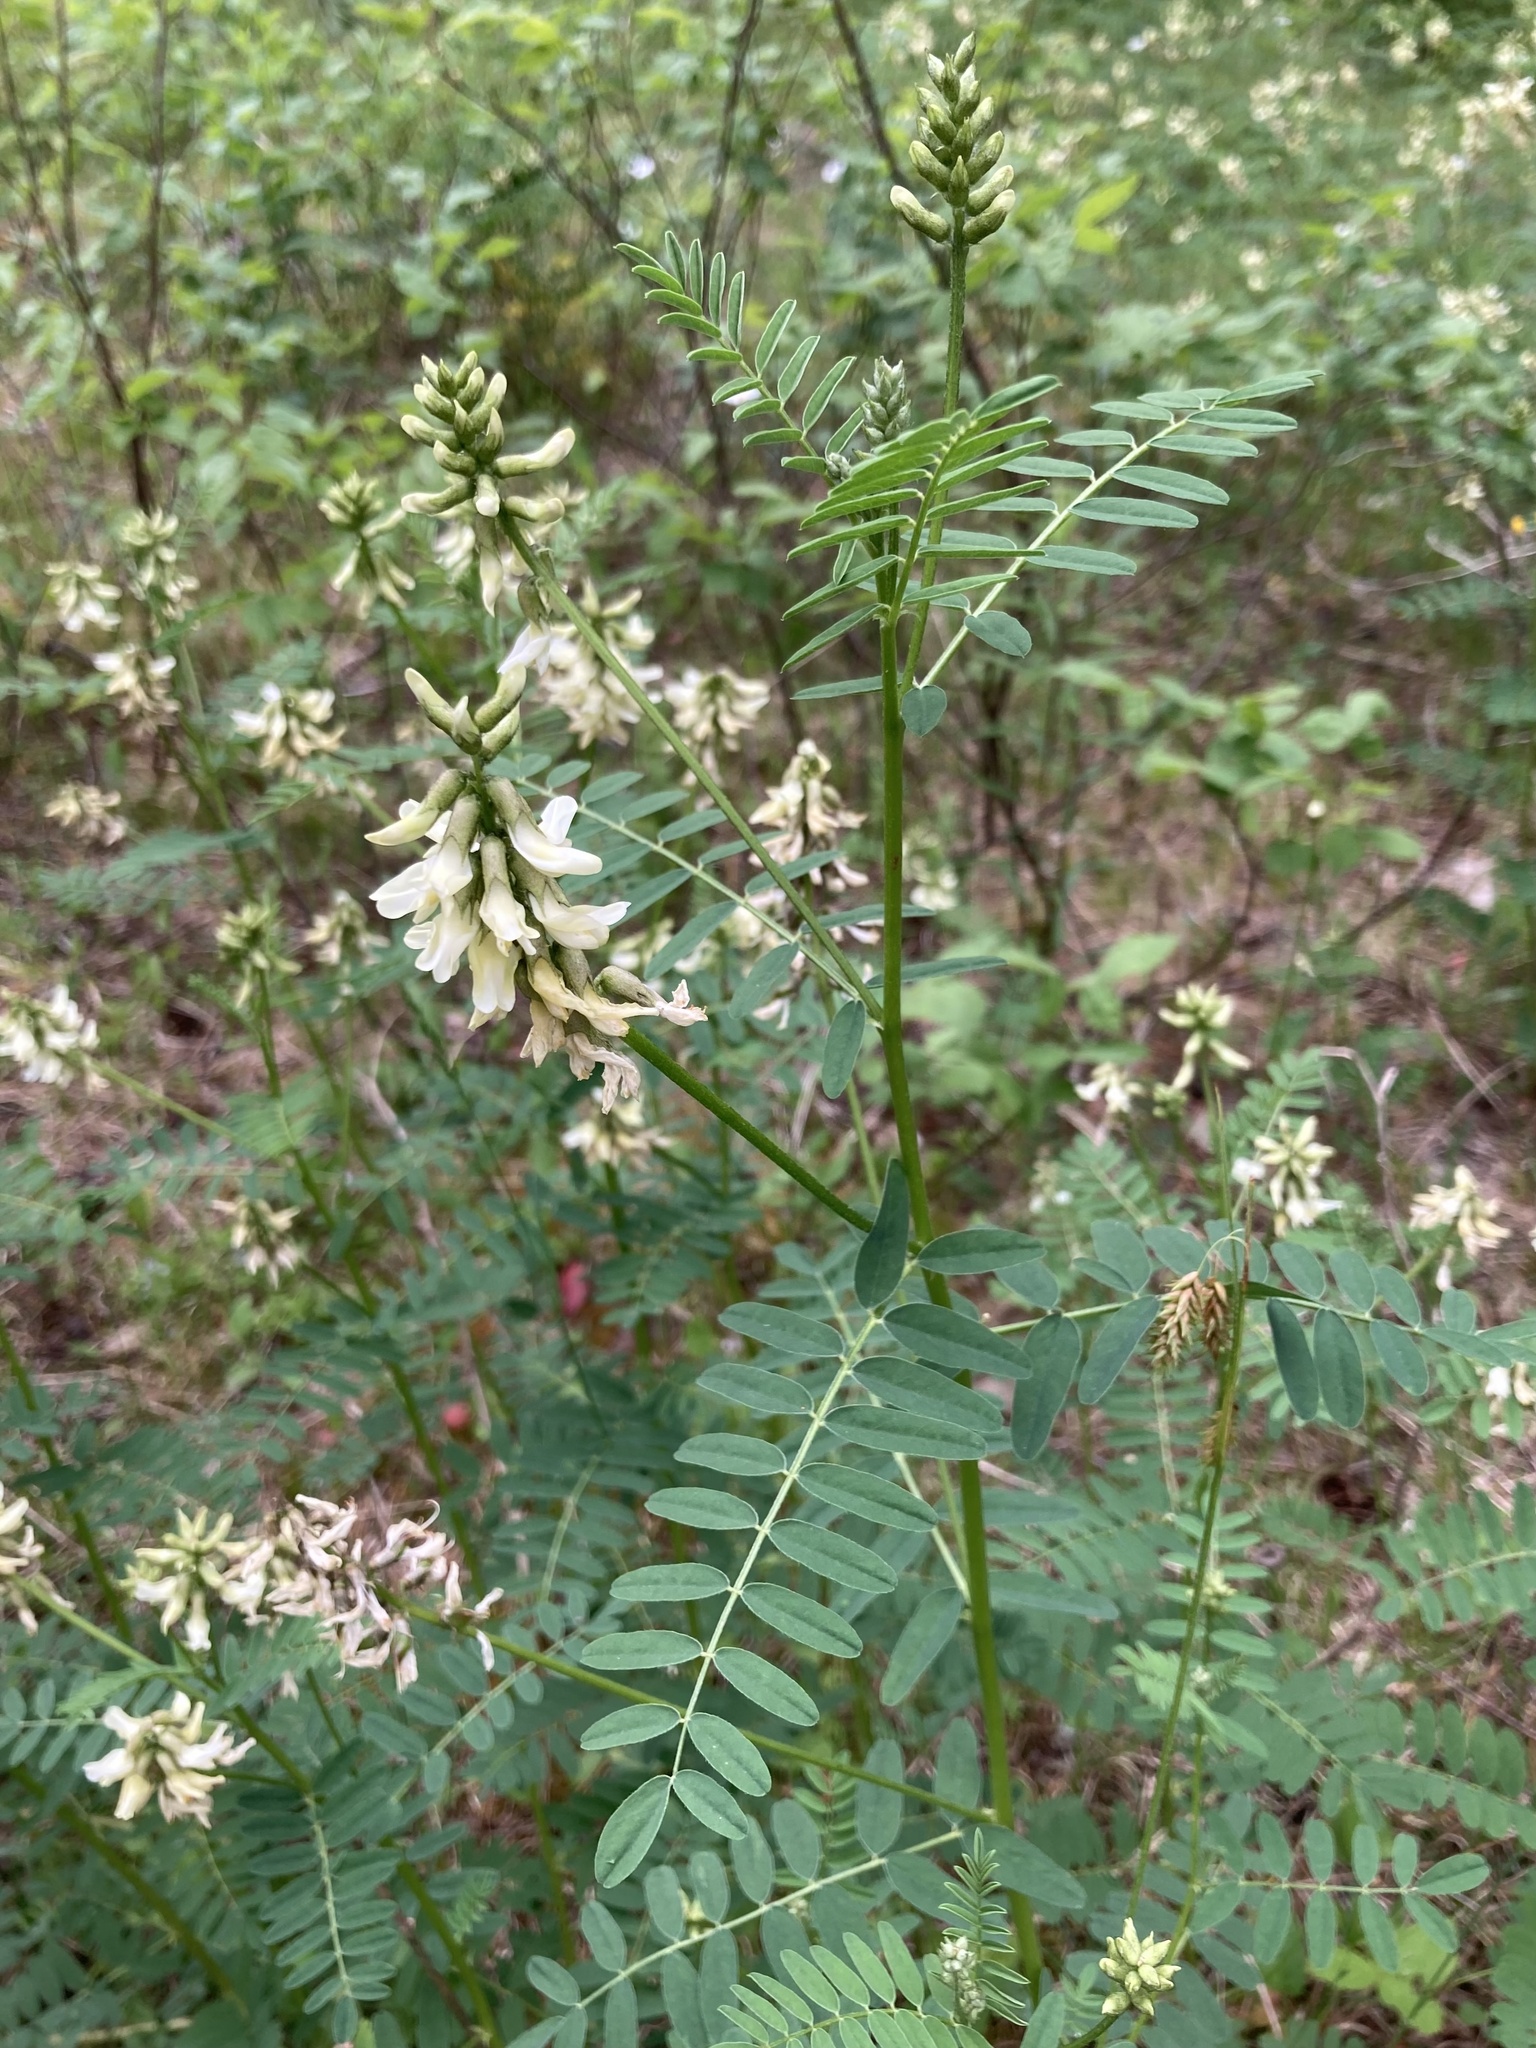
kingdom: Plantae
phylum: Tracheophyta
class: Magnoliopsida
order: Fabales
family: Fabaceae
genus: Astragalus
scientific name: Astragalus neglectus
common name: Cooper's milk-vetch
